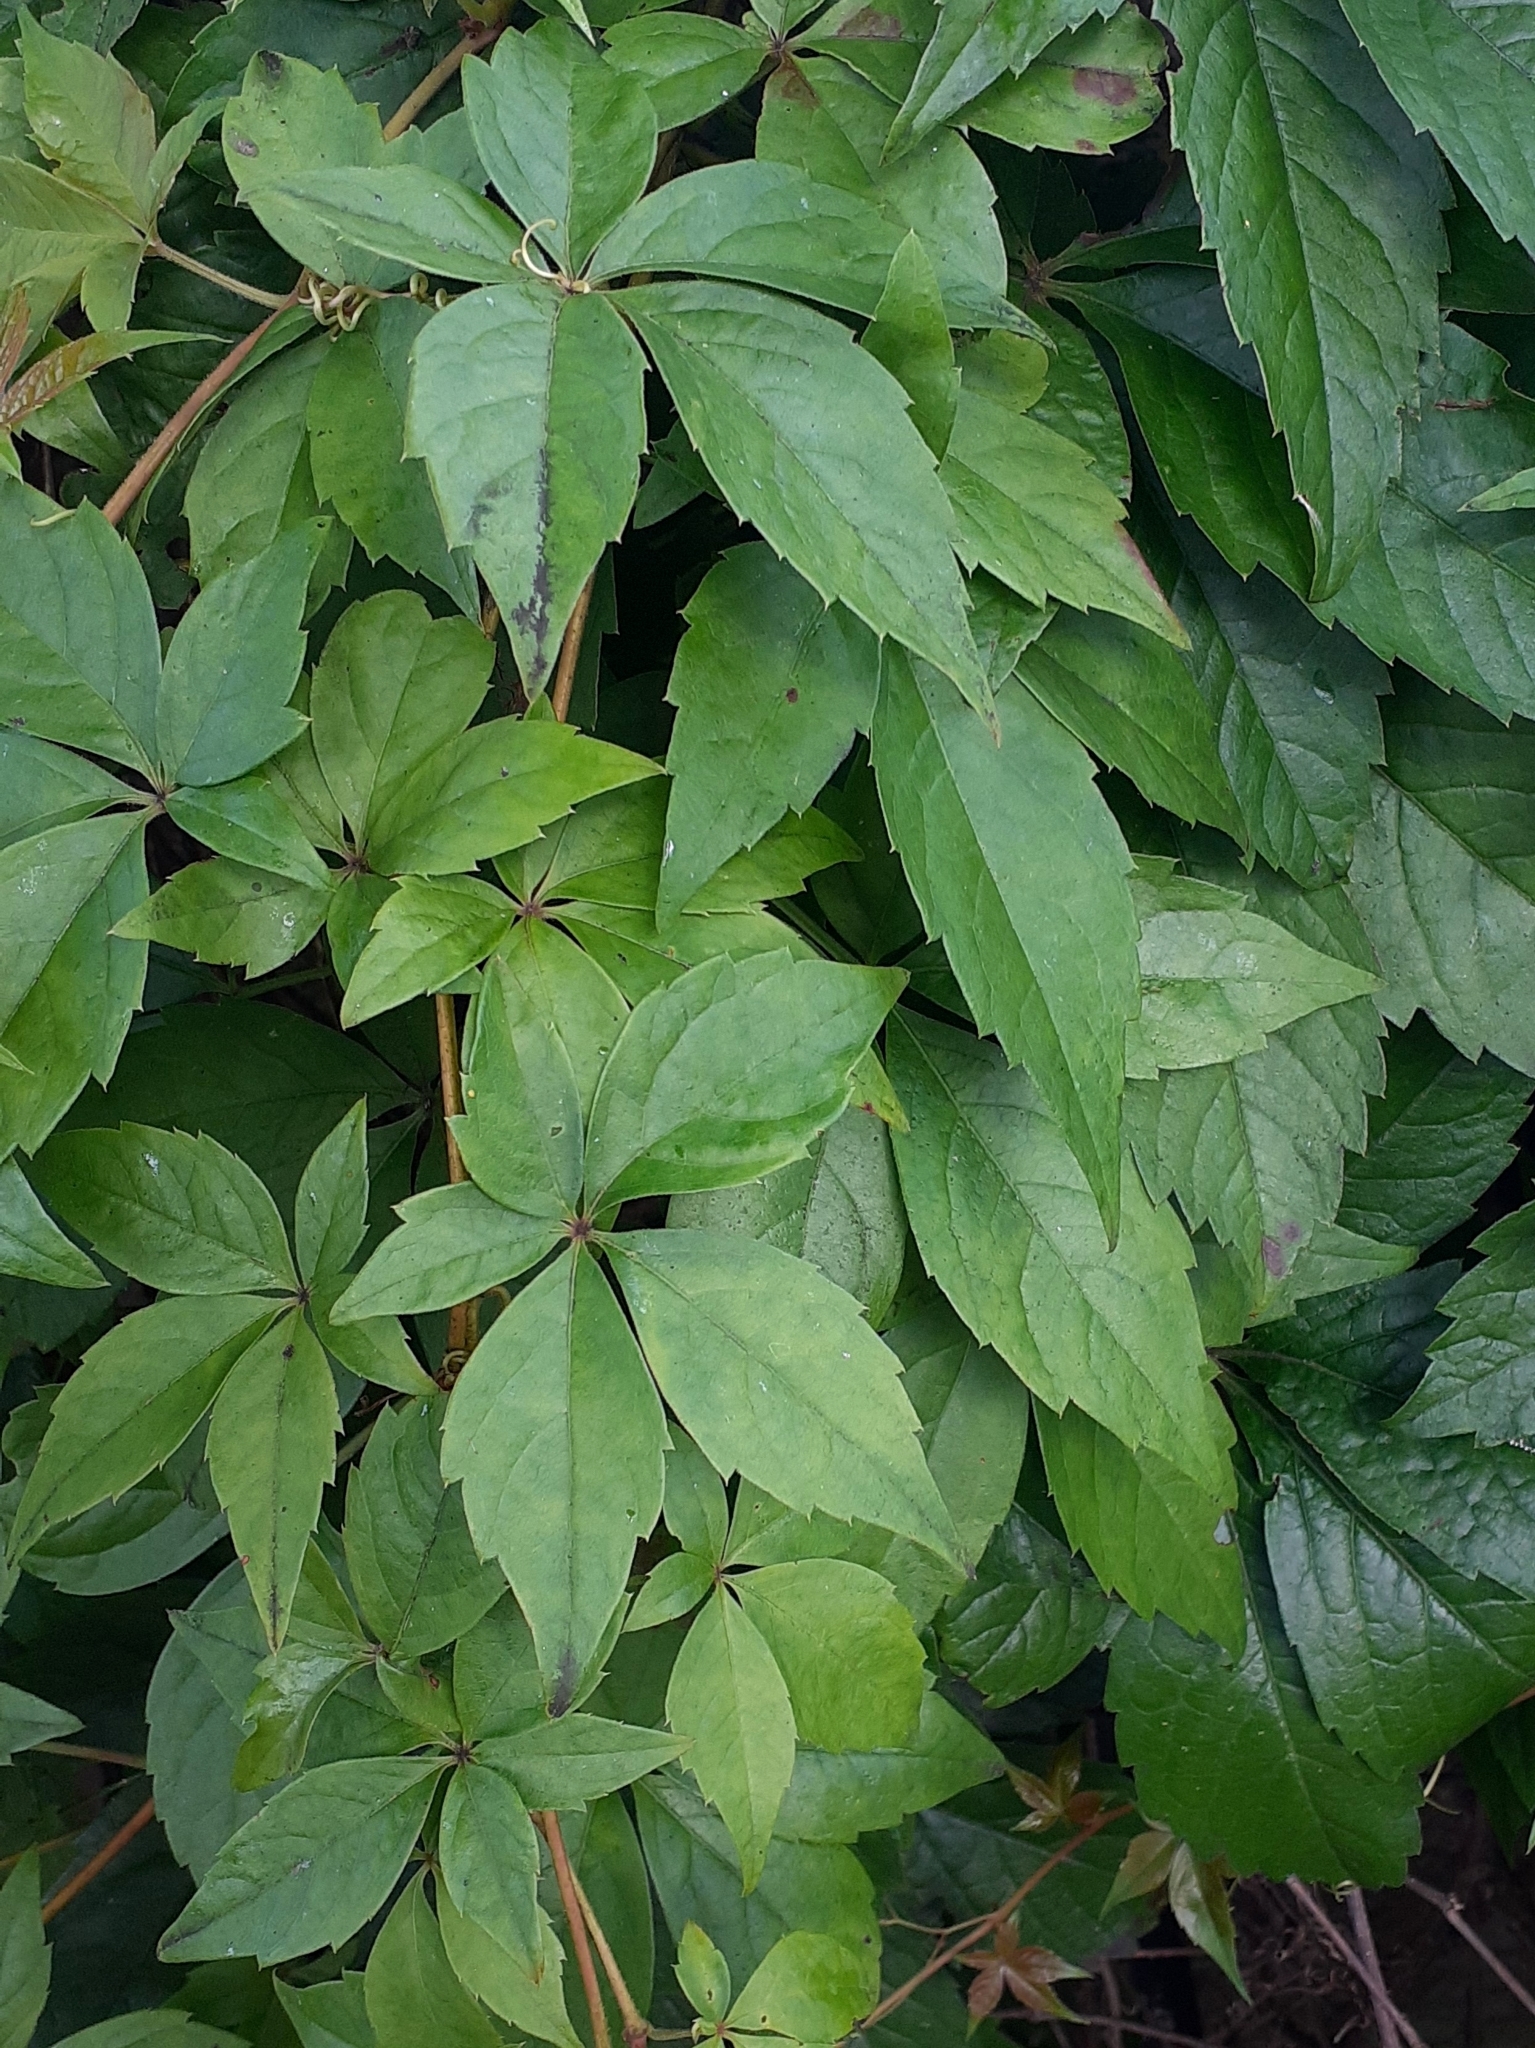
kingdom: Plantae
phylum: Tracheophyta
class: Magnoliopsida
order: Vitales
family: Vitaceae
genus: Parthenocissus
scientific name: Parthenocissus quinquefolia
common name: Virginia-creeper
